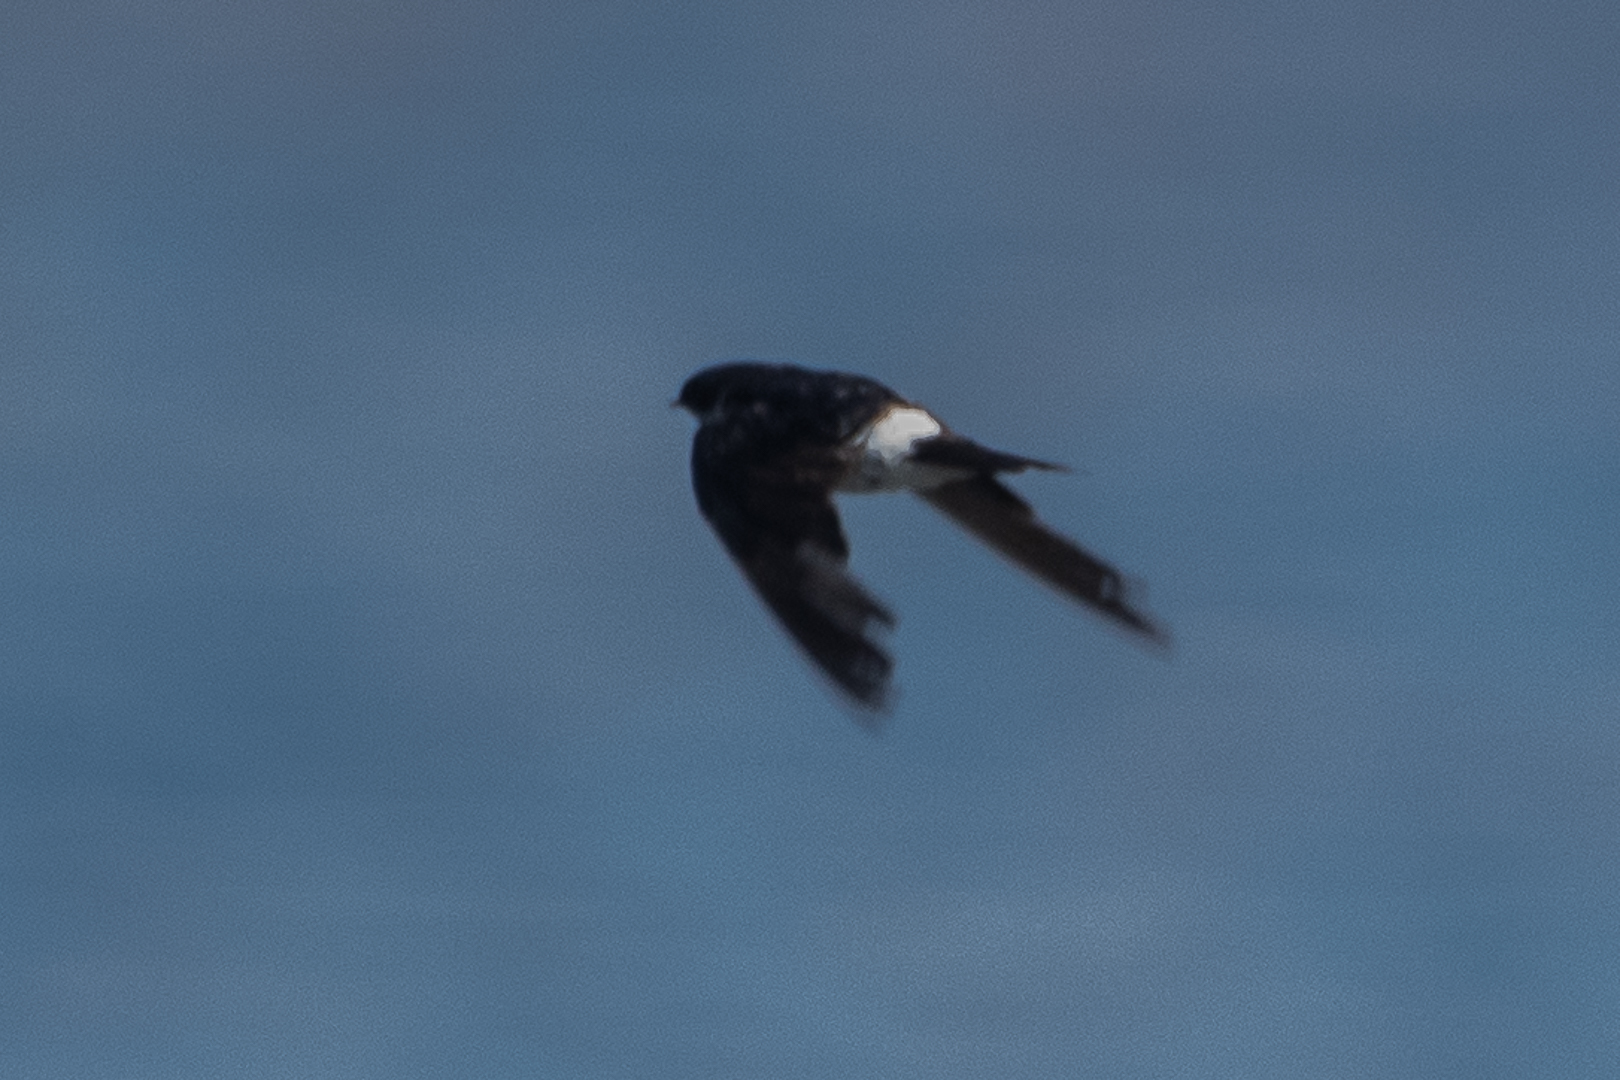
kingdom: Animalia
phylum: Chordata
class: Aves
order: Passeriformes
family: Hirundinidae
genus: Tachycineta
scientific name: Tachycineta leucopyga
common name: Chilean swallow
